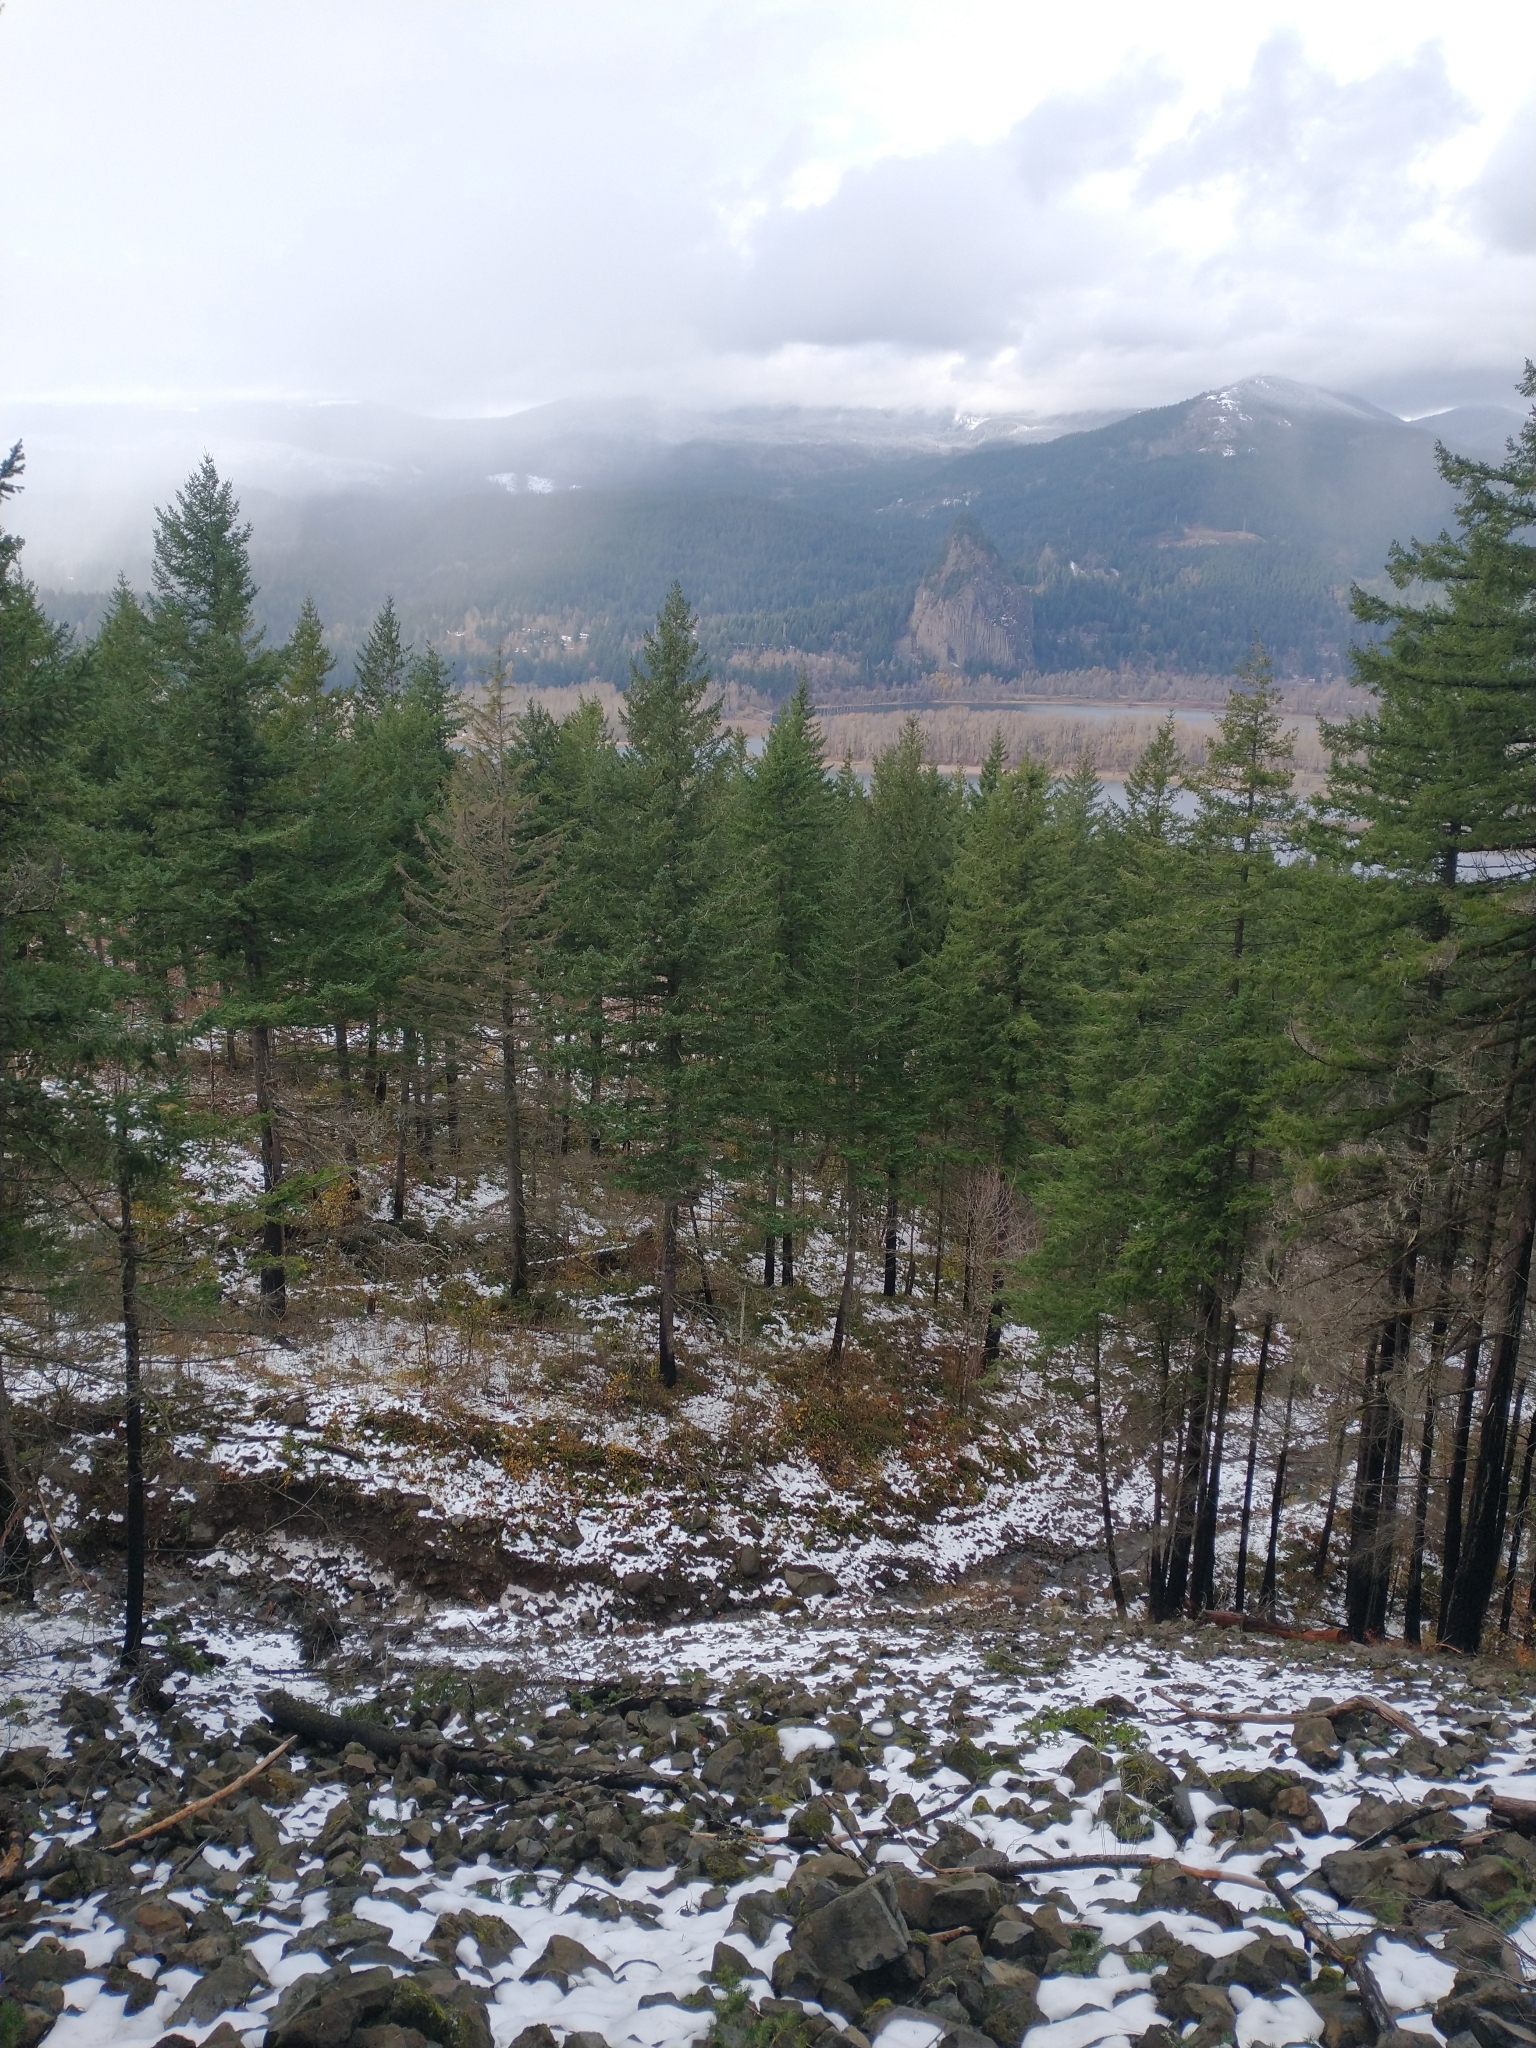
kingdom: Plantae
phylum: Tracheophyta
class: Pinopsida
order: Pinales
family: Pinaceae
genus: Pseudotsuga
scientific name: Pseudotsuga menziesii
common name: Douglas fir
